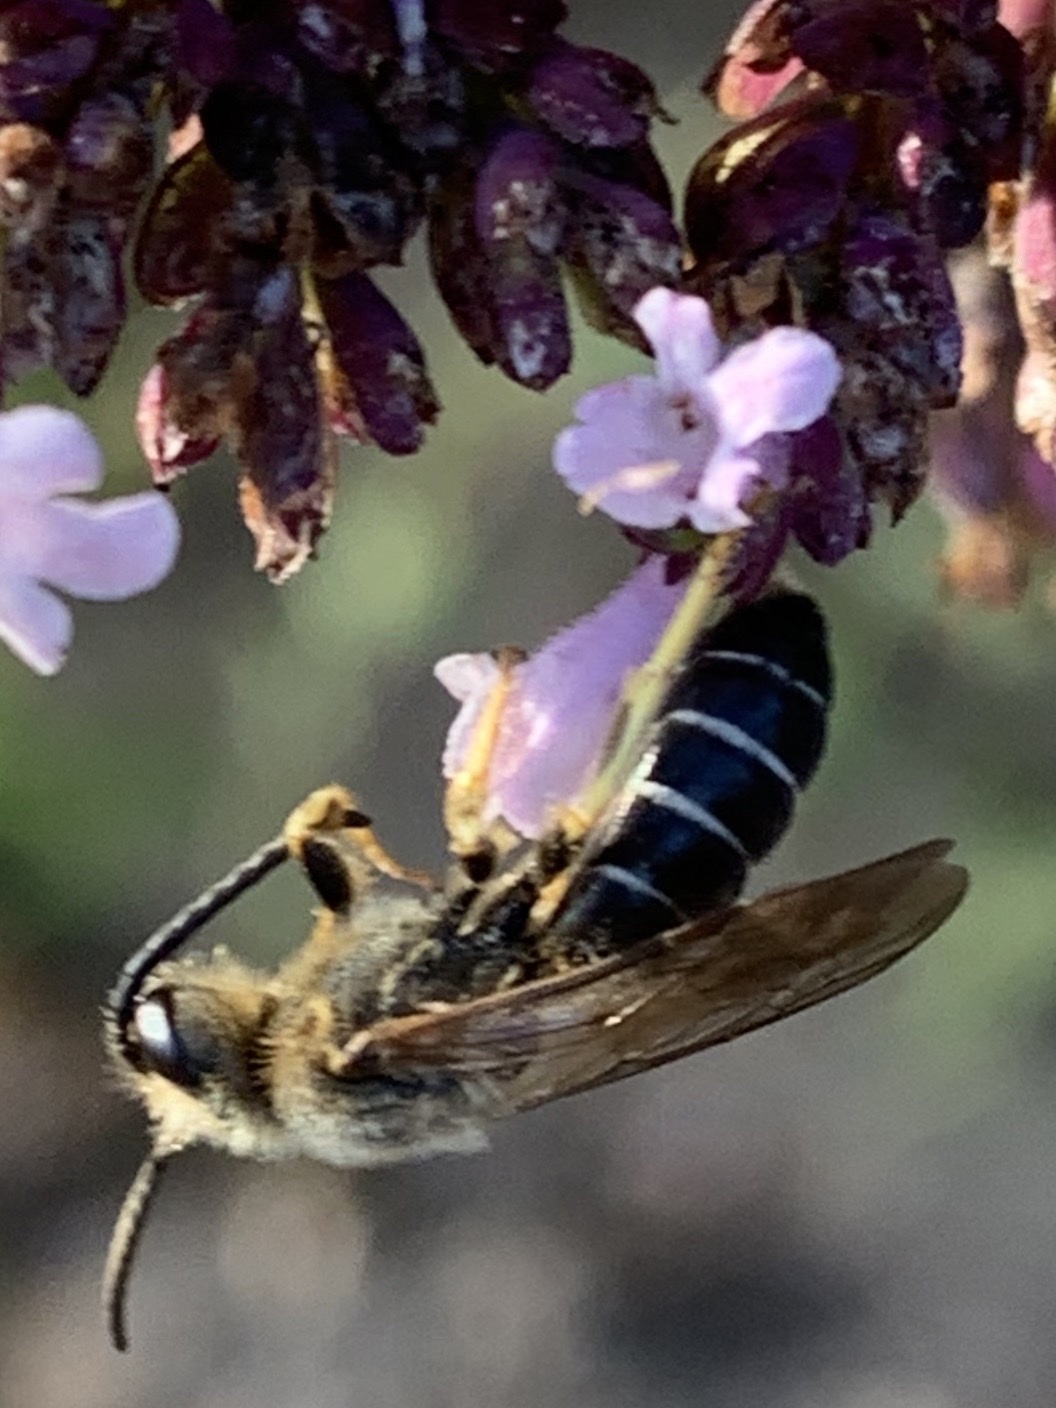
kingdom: Animalia
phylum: Arthropoda
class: Insecta
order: Hymenoptera
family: Halictidae
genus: Halictus
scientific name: Halictus rubicundus
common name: Orange-legged furrow bee
